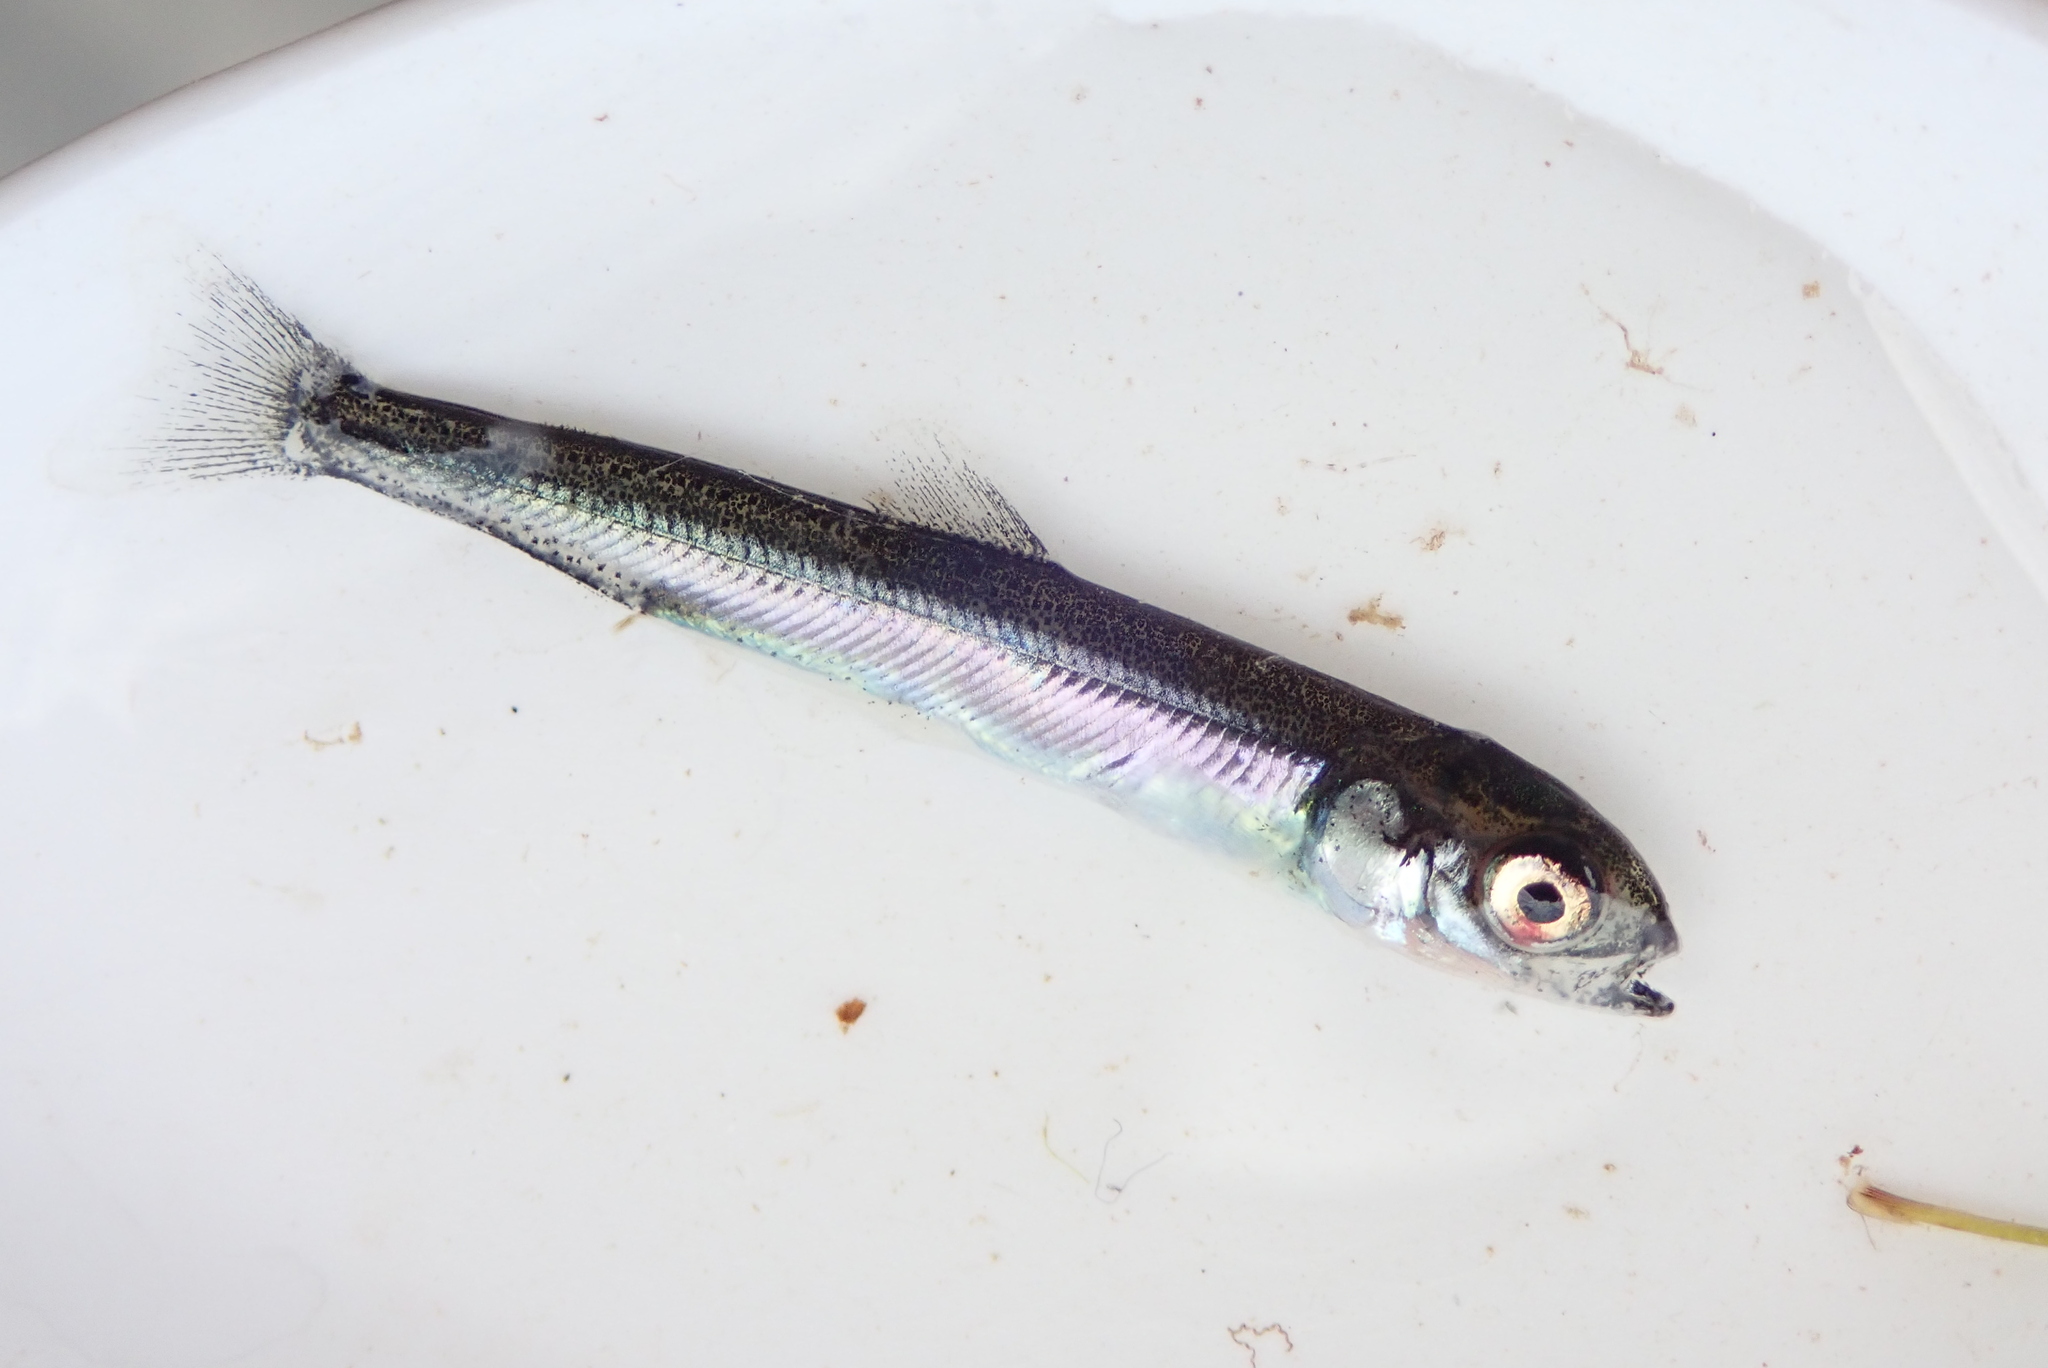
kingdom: Animalia
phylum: Chordata
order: Osmeriformes
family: Osmeridae
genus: Osmerus
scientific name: Osmerus mordax
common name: Rainbow smelt
